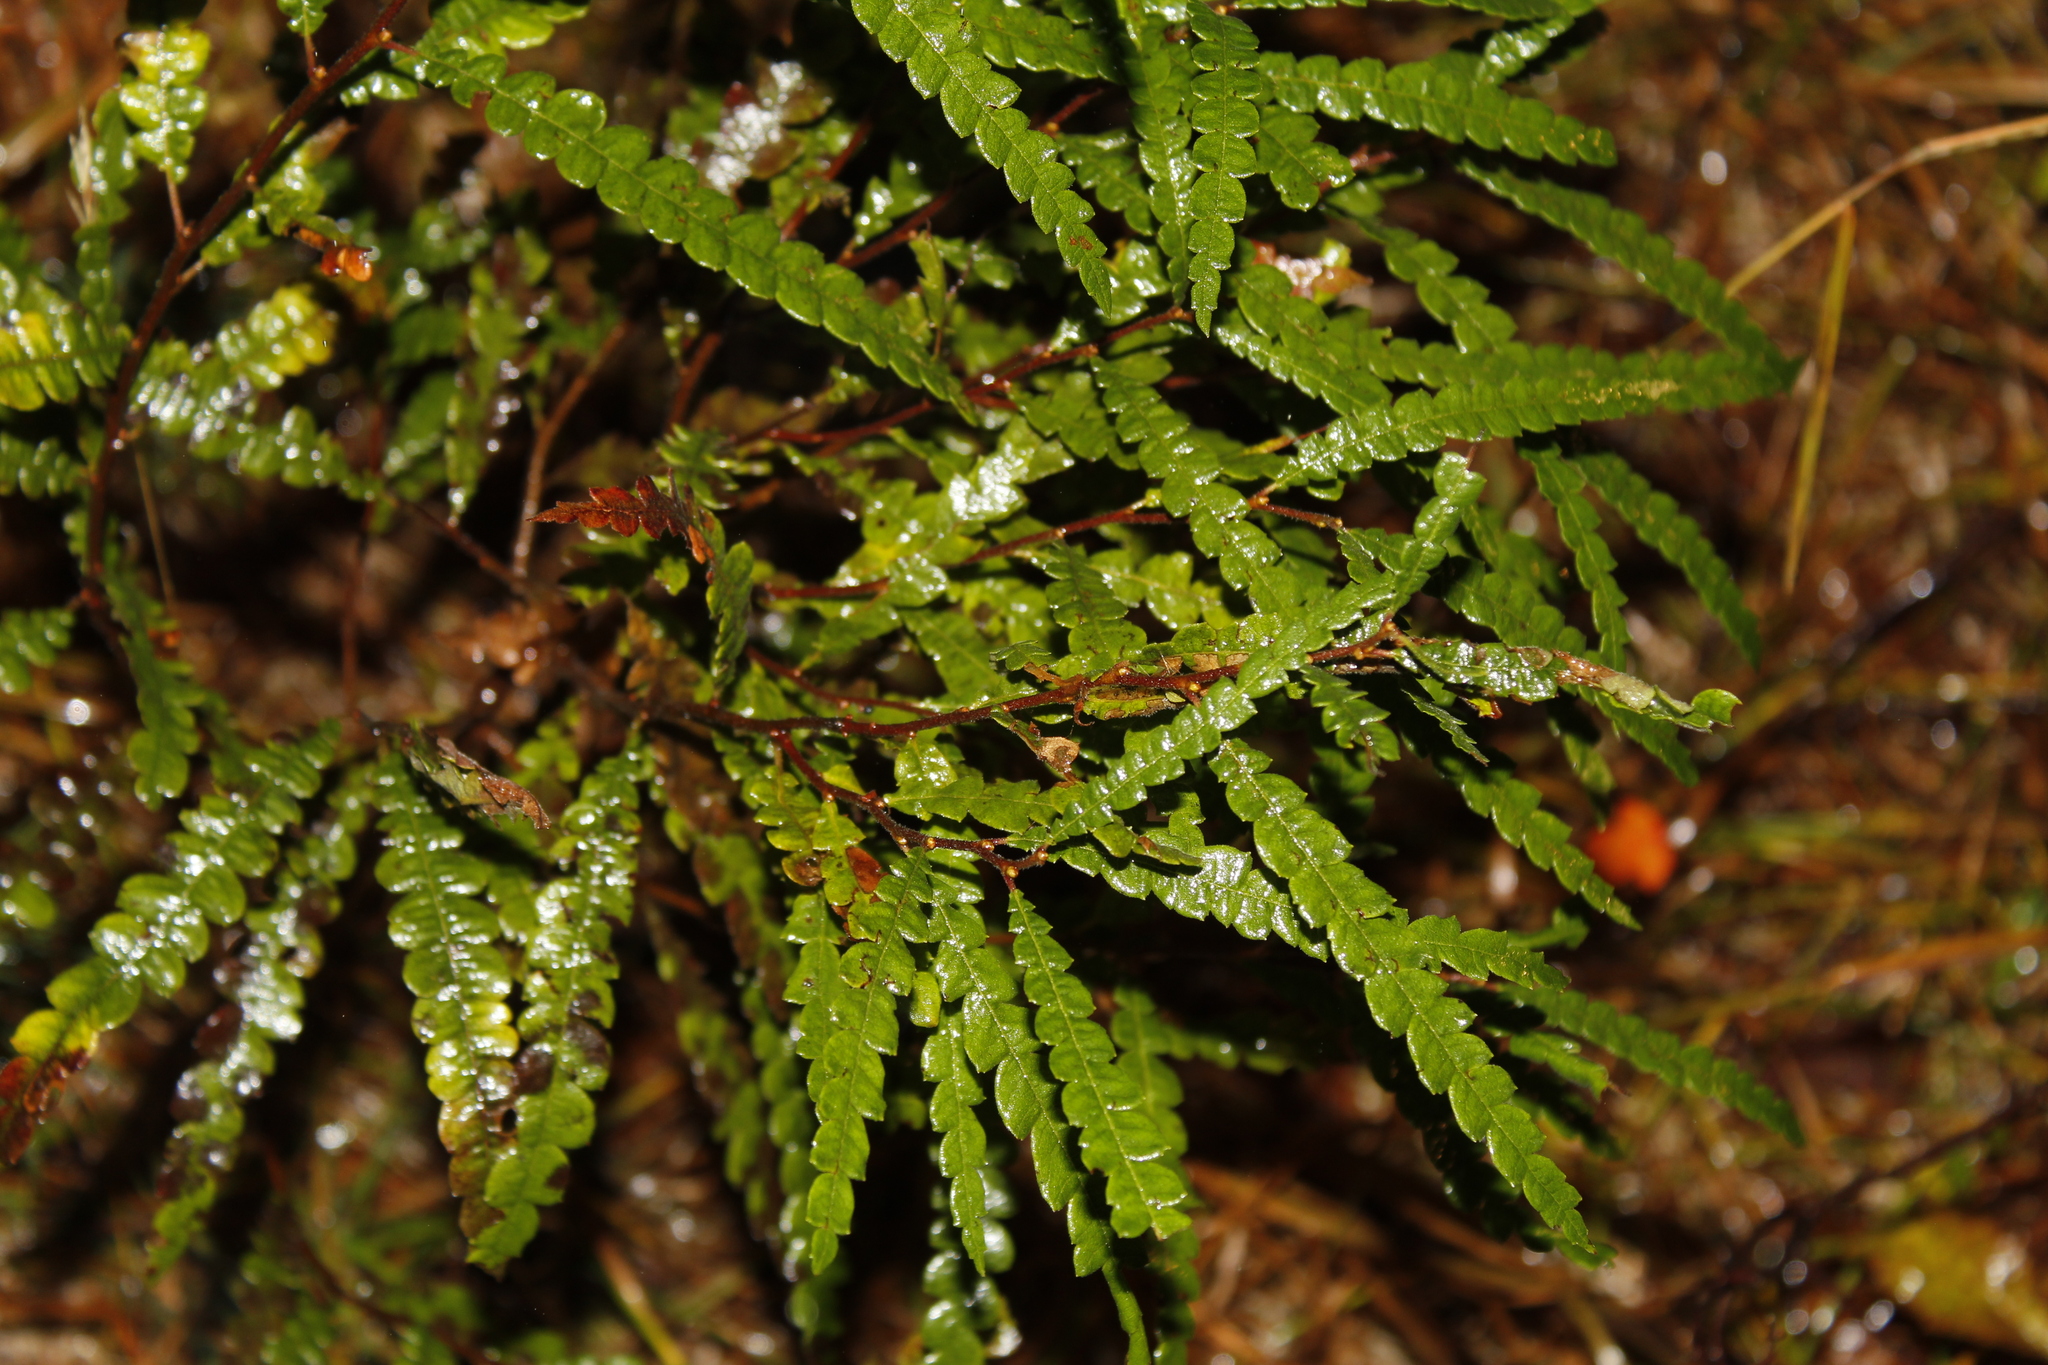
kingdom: Plantae
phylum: Tracheophyta
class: Magnoliopsida
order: Fagales
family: Myricaceae
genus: Comptonia
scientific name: Comptonia peregrina
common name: Sweet-fern
